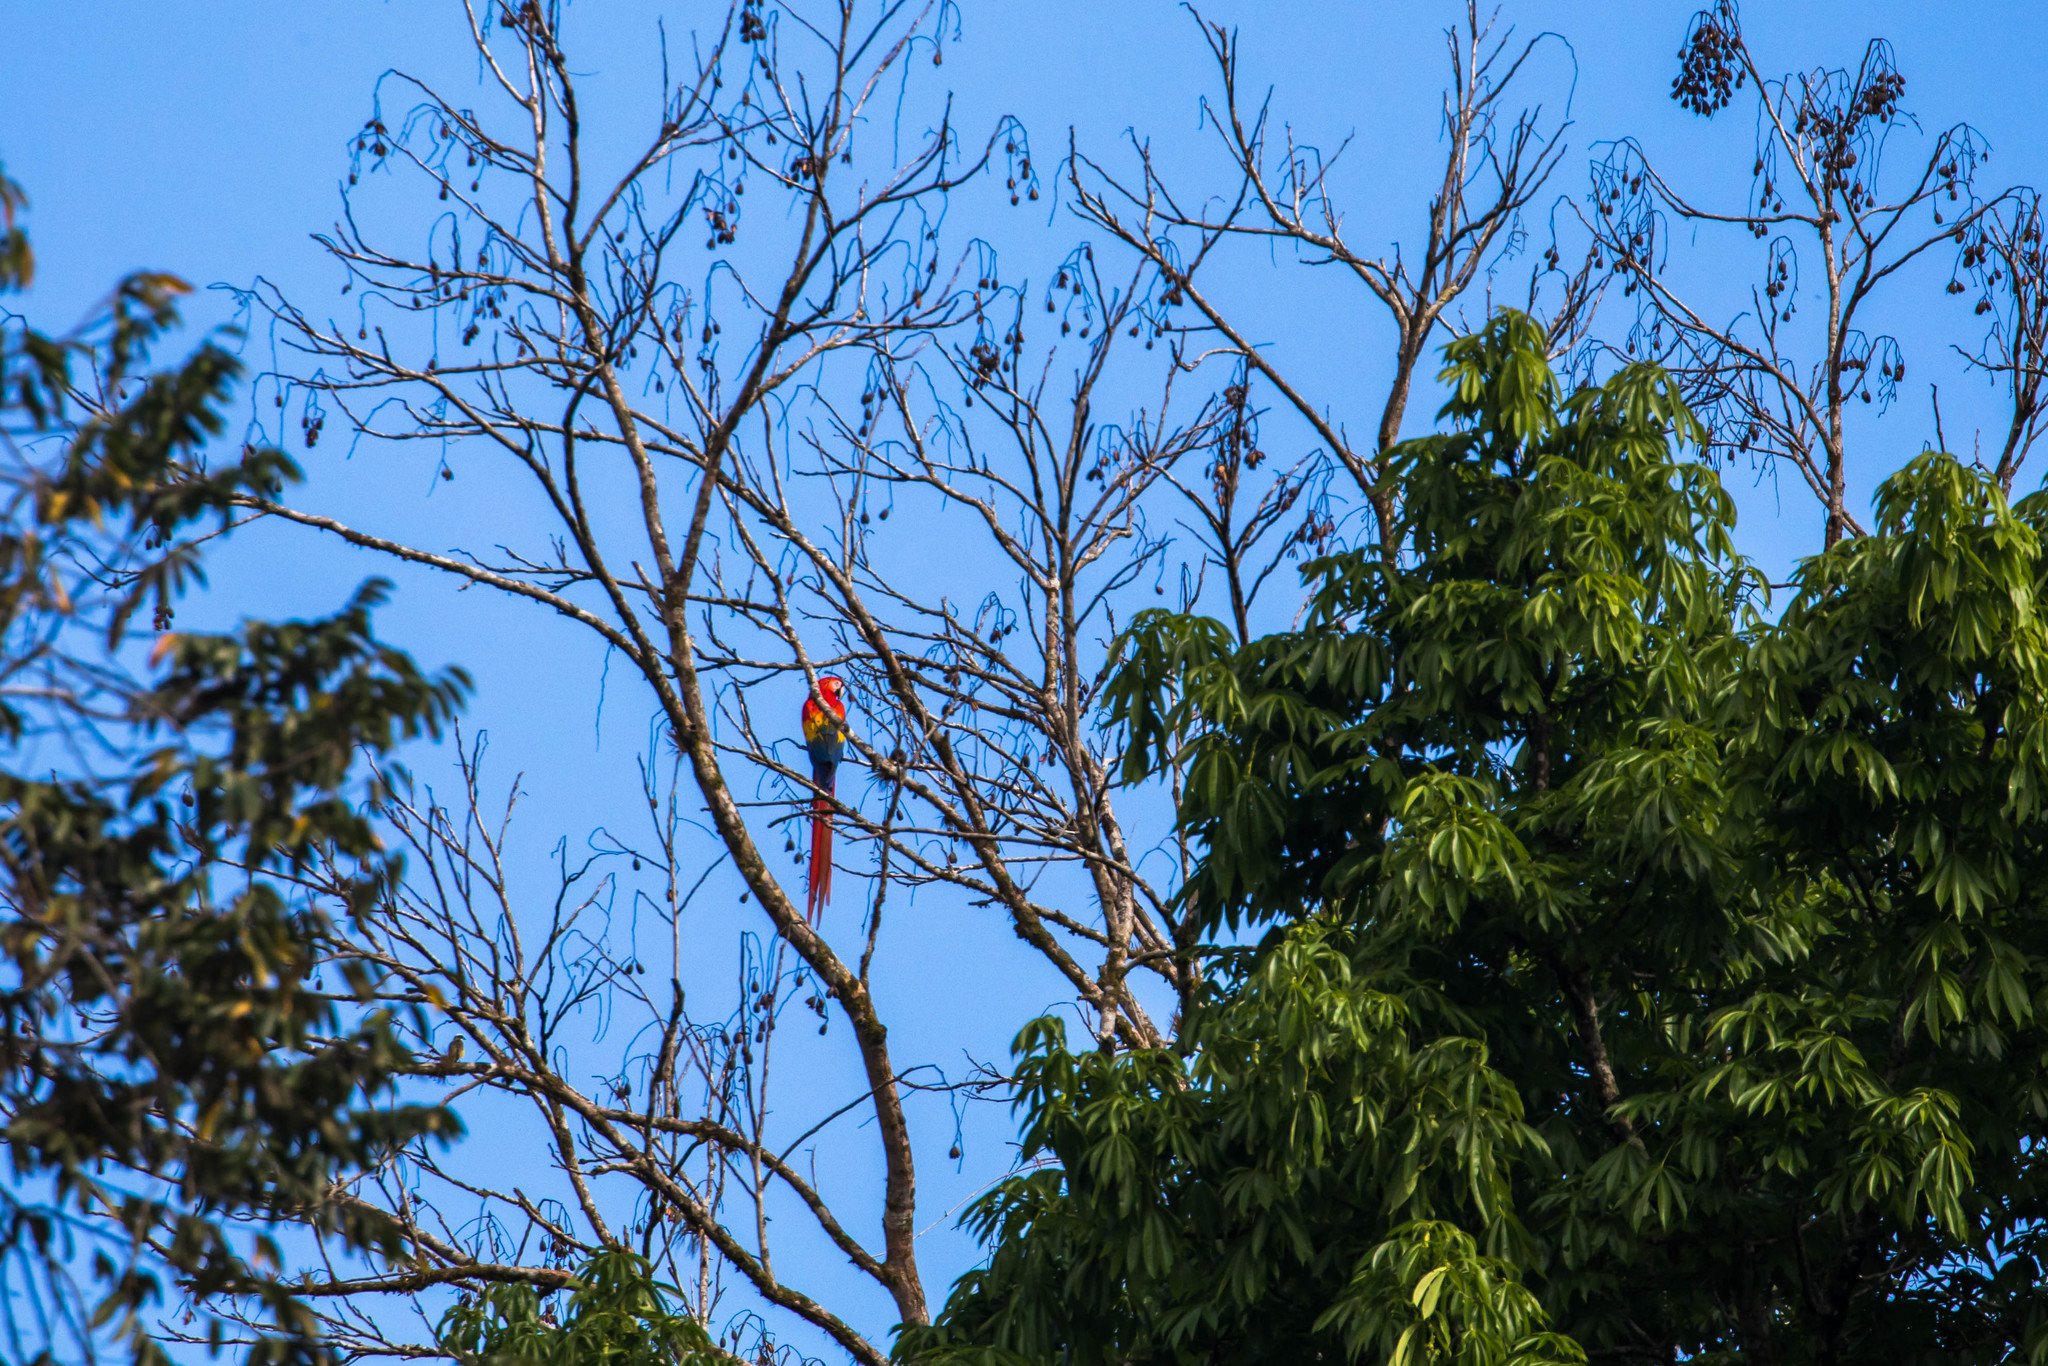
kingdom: Animalia
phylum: Chordata
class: Aves
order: Psittaciformes
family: Psittacidae
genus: Ara
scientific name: Ara macao
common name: Scarlet macaw
